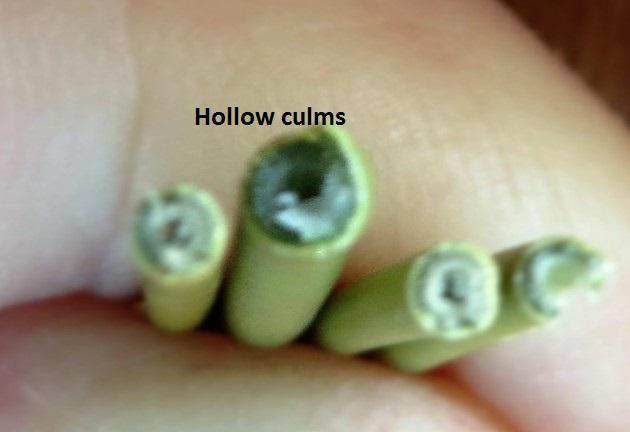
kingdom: Plantae
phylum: Tracheophyta
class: Liliopsida
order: Poales
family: Restionaceae
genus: Nevillea
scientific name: Nevillea obtusissimus
